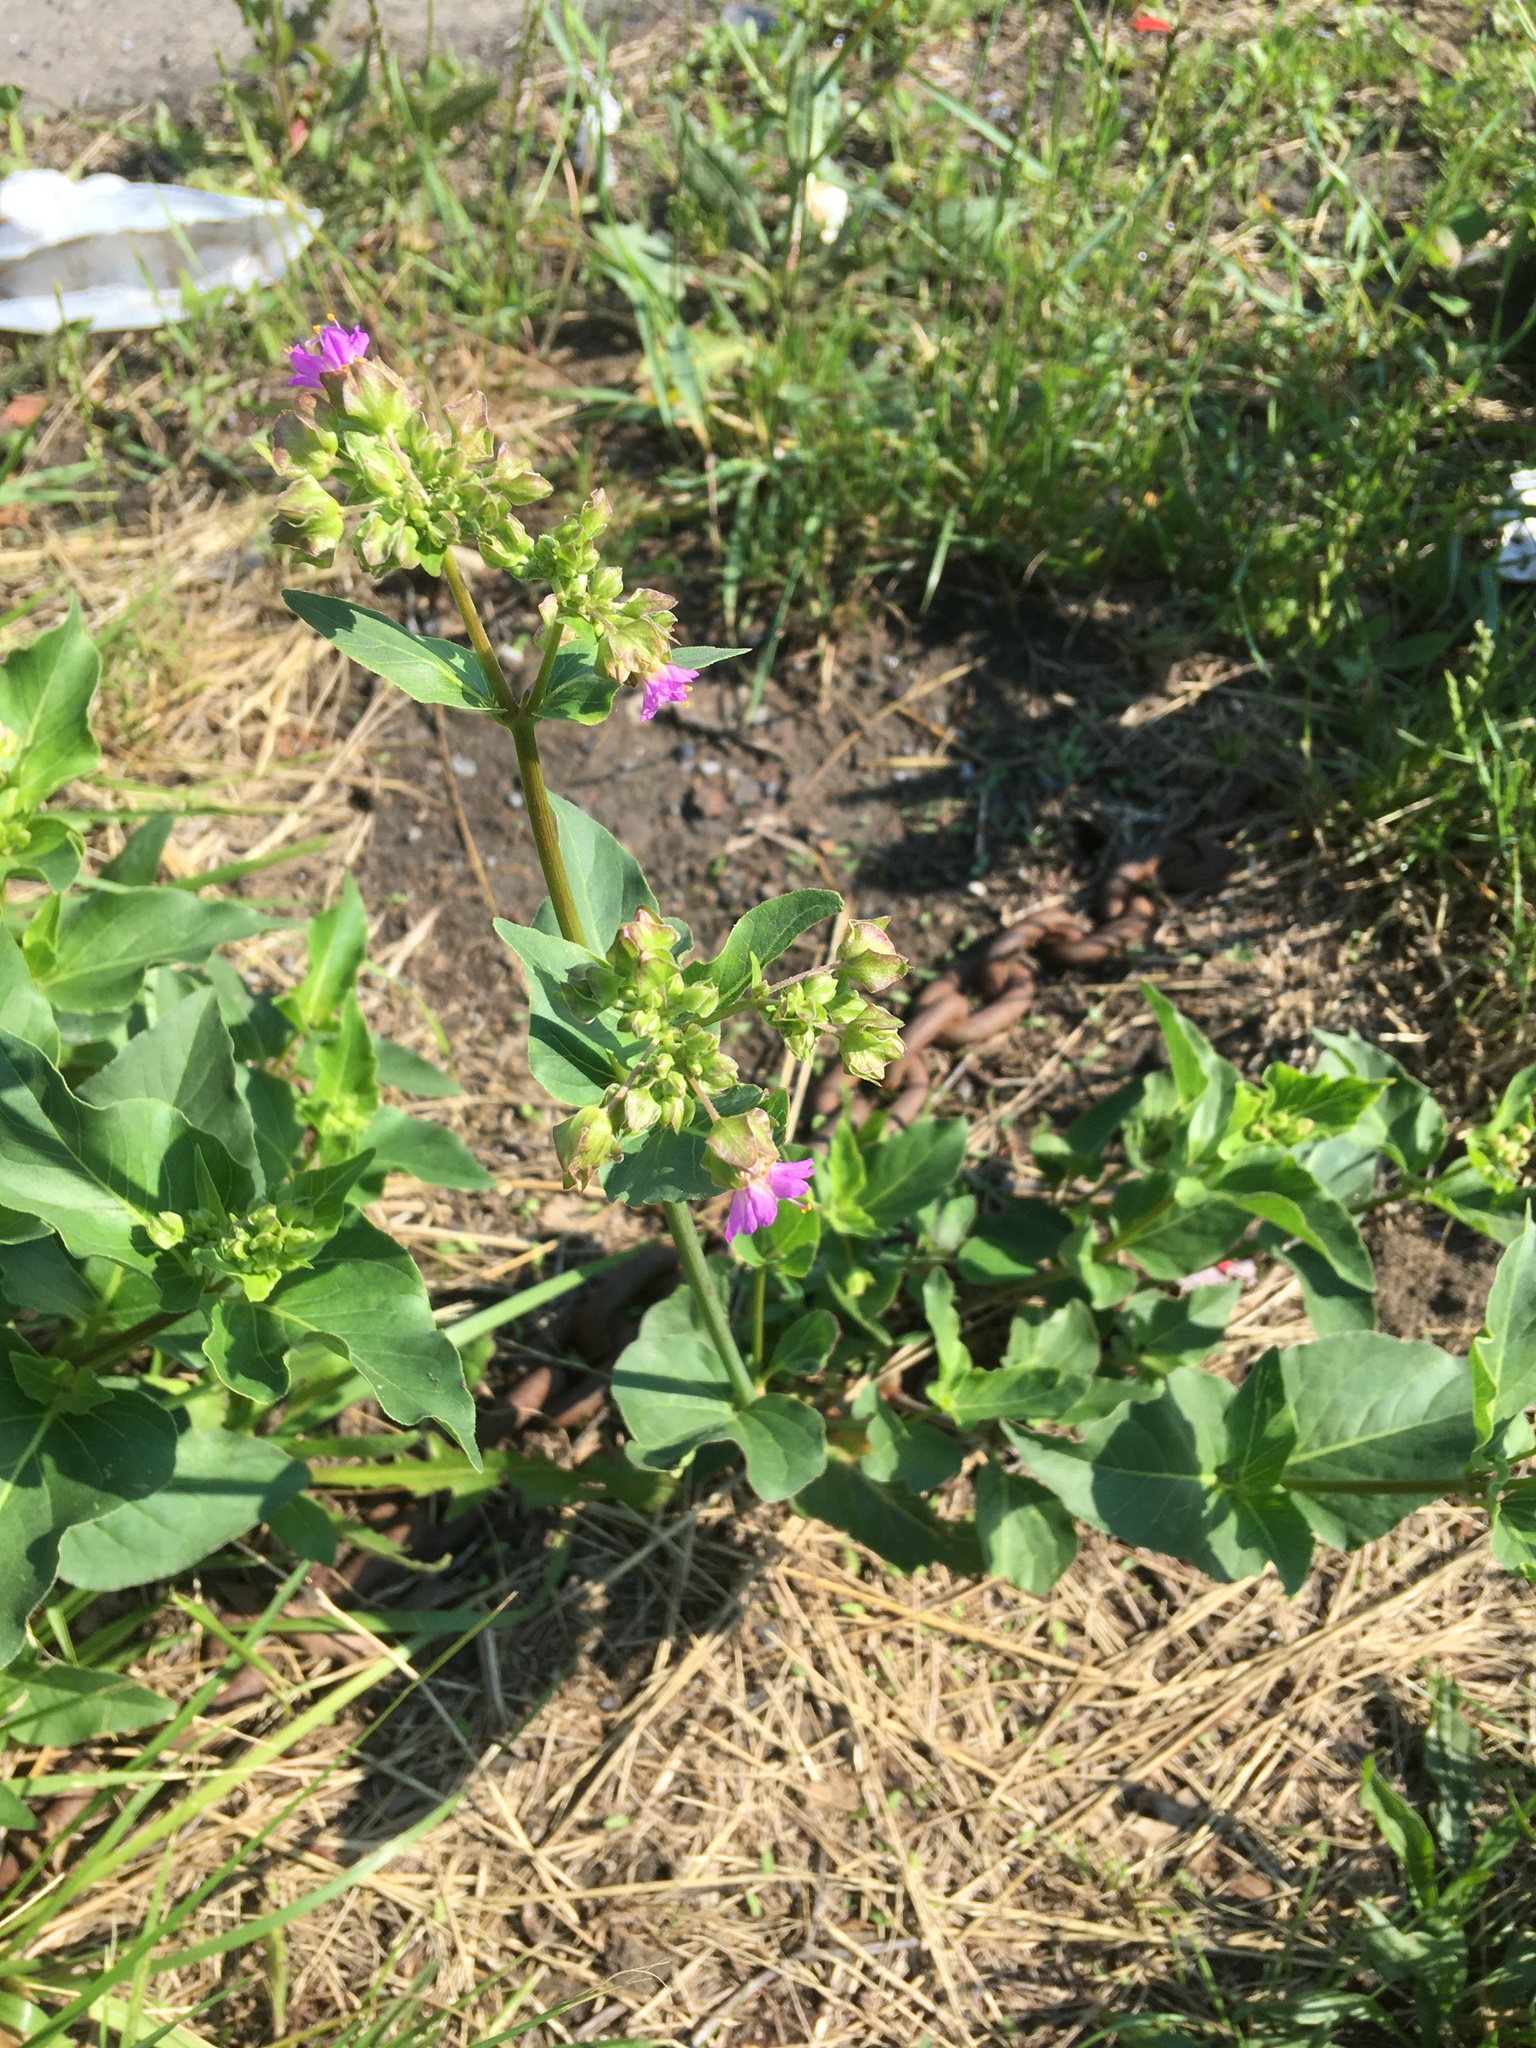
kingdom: Plantae
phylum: Tracheophyta
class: Magnoliopsida
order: Caryophyllales
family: Nyctaginaceae
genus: Mirabilis
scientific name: Mirabilis nyctaginea
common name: Umbrella wort
